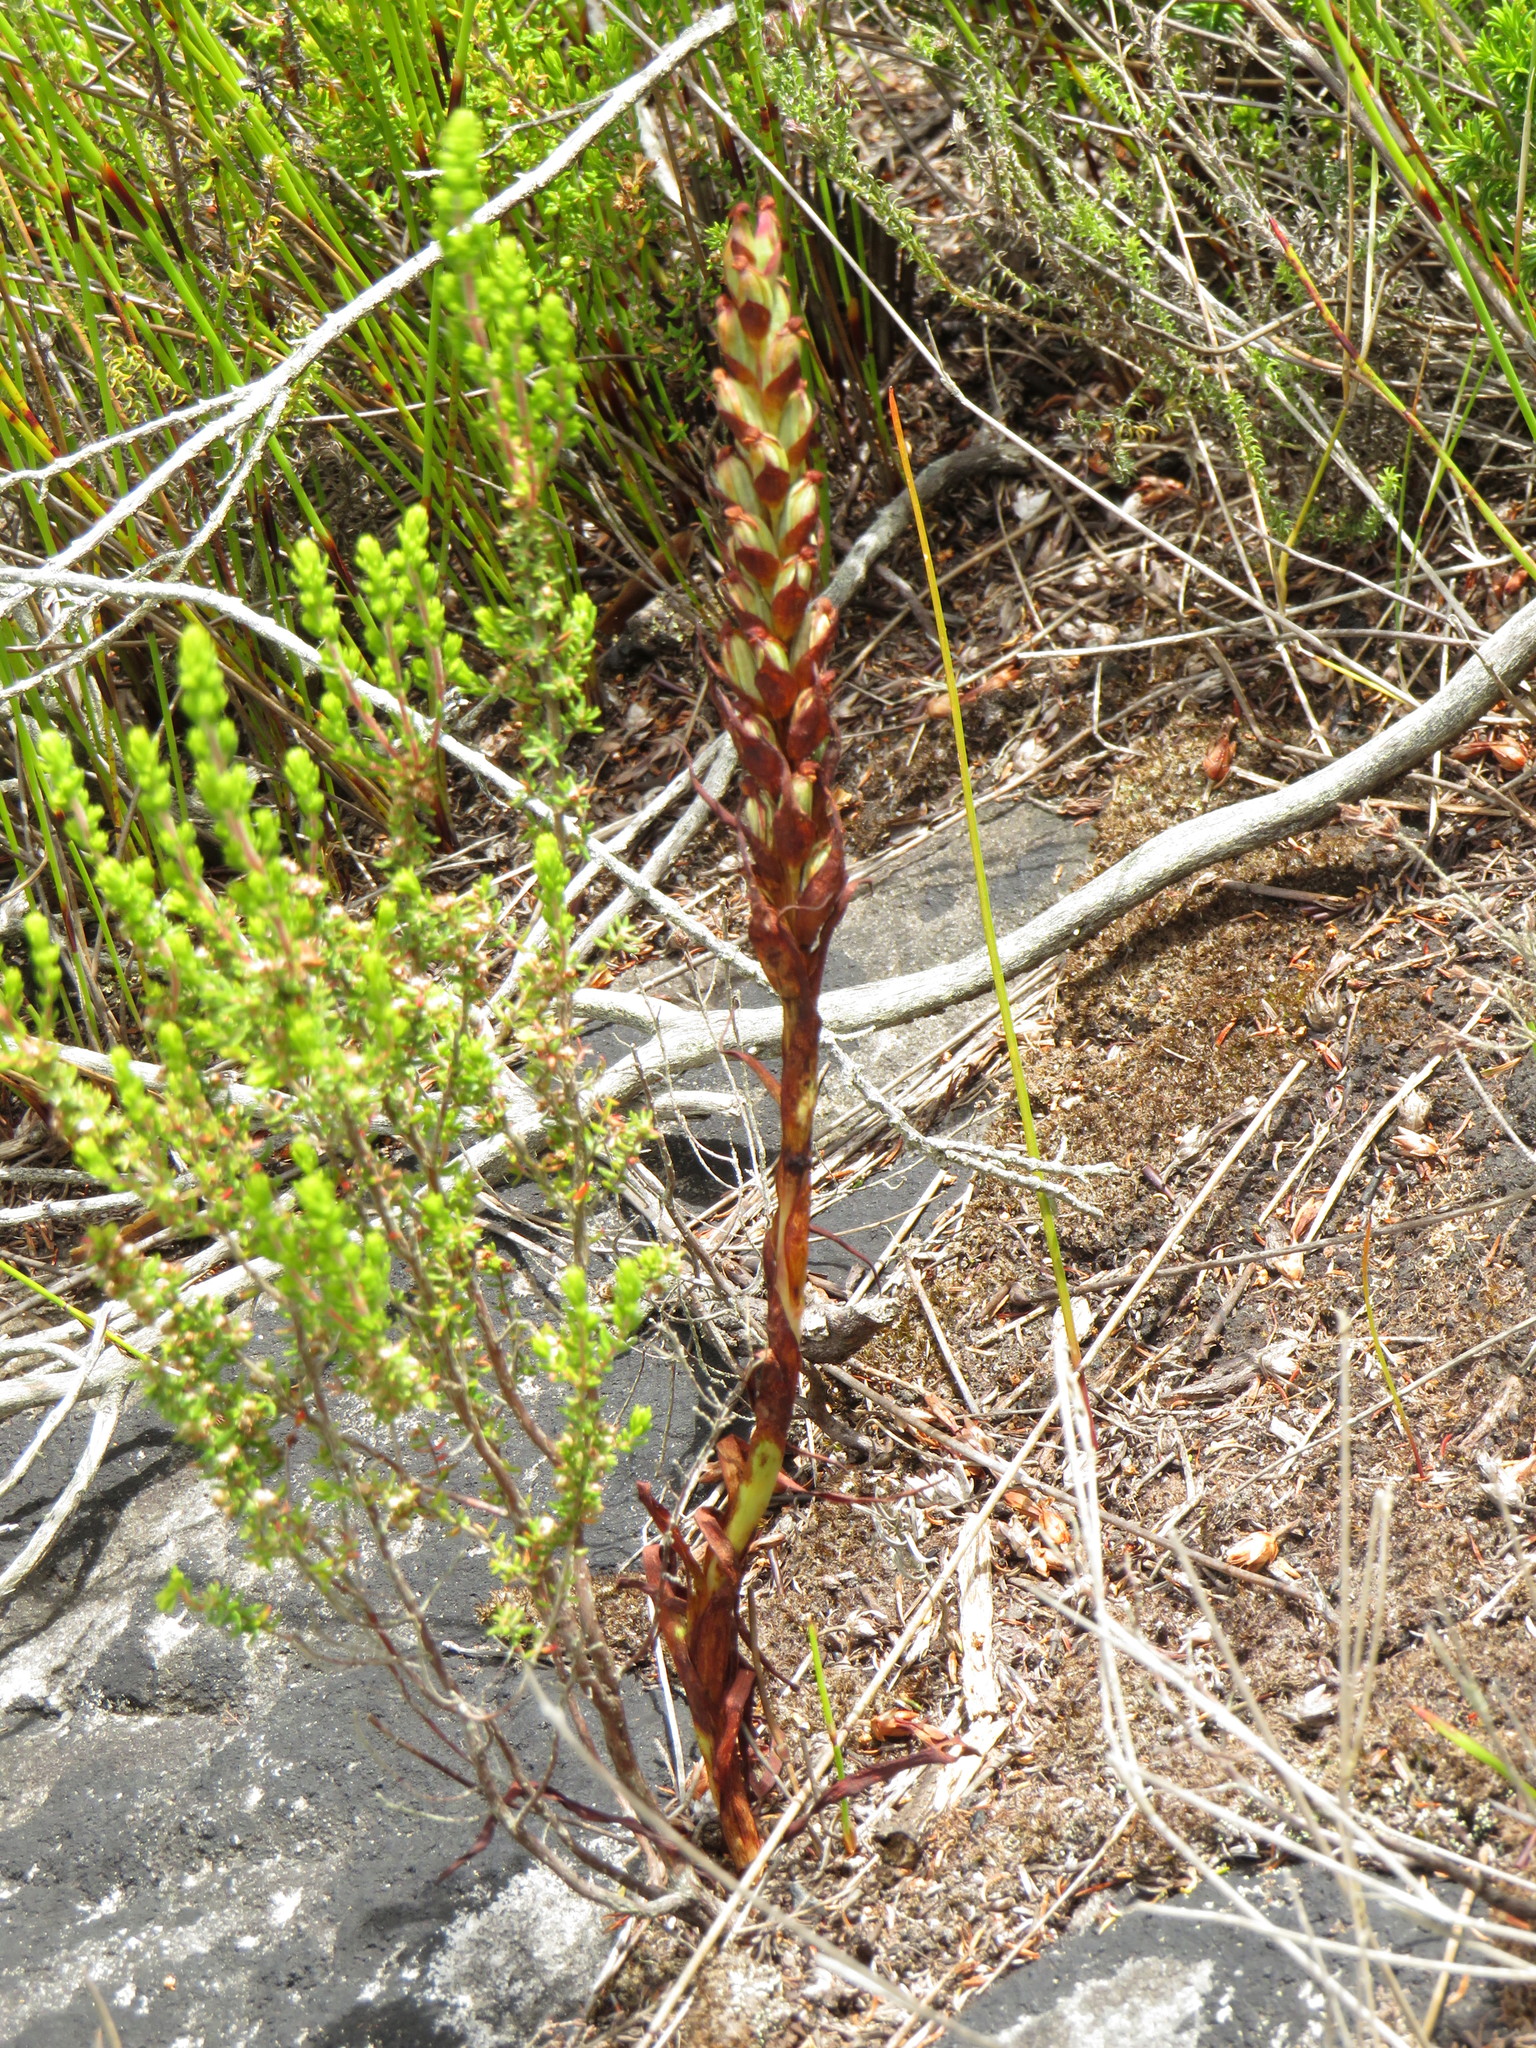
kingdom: Plantae
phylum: Tracheophyta
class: Liliopsida
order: Asparagales
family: Orchidaceae
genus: Disa
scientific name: Disa bracteata
